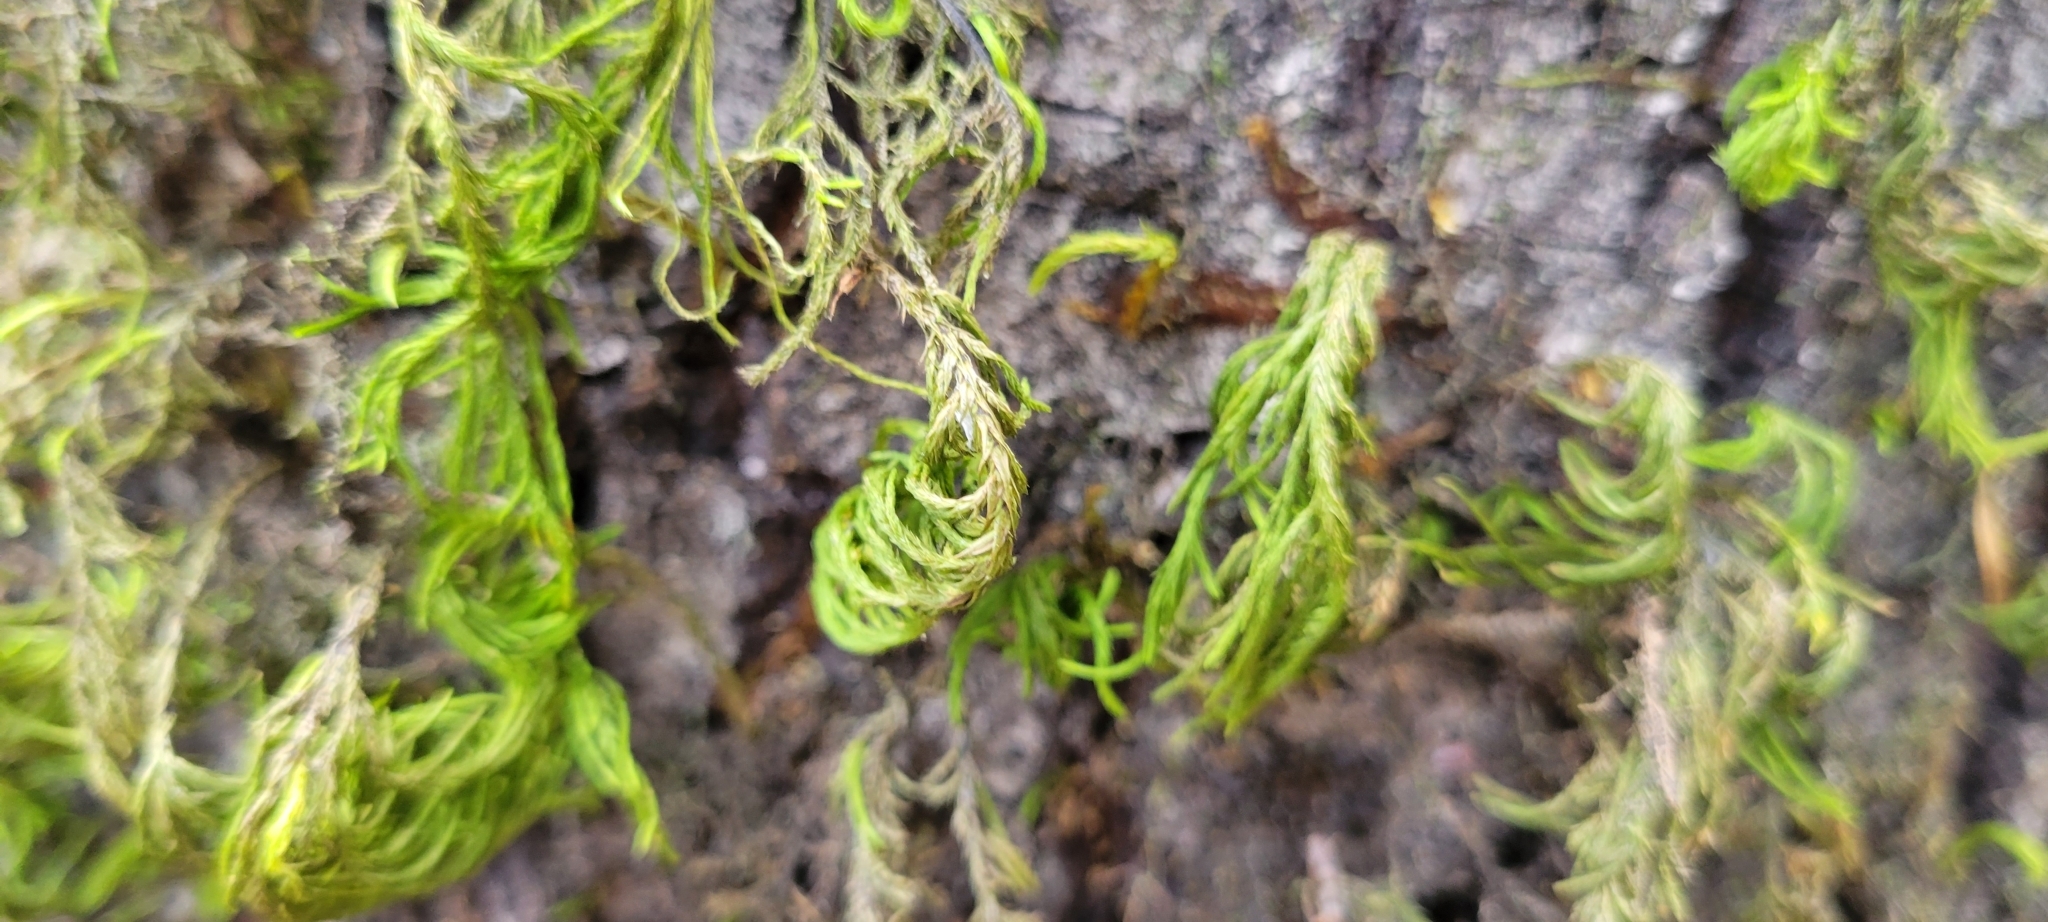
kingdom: Plantae
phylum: Bryophyta
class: Bryopsida
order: Hypnales
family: Cryphaeaceae
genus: Dendroalsia
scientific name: Dendroalsia abietina
